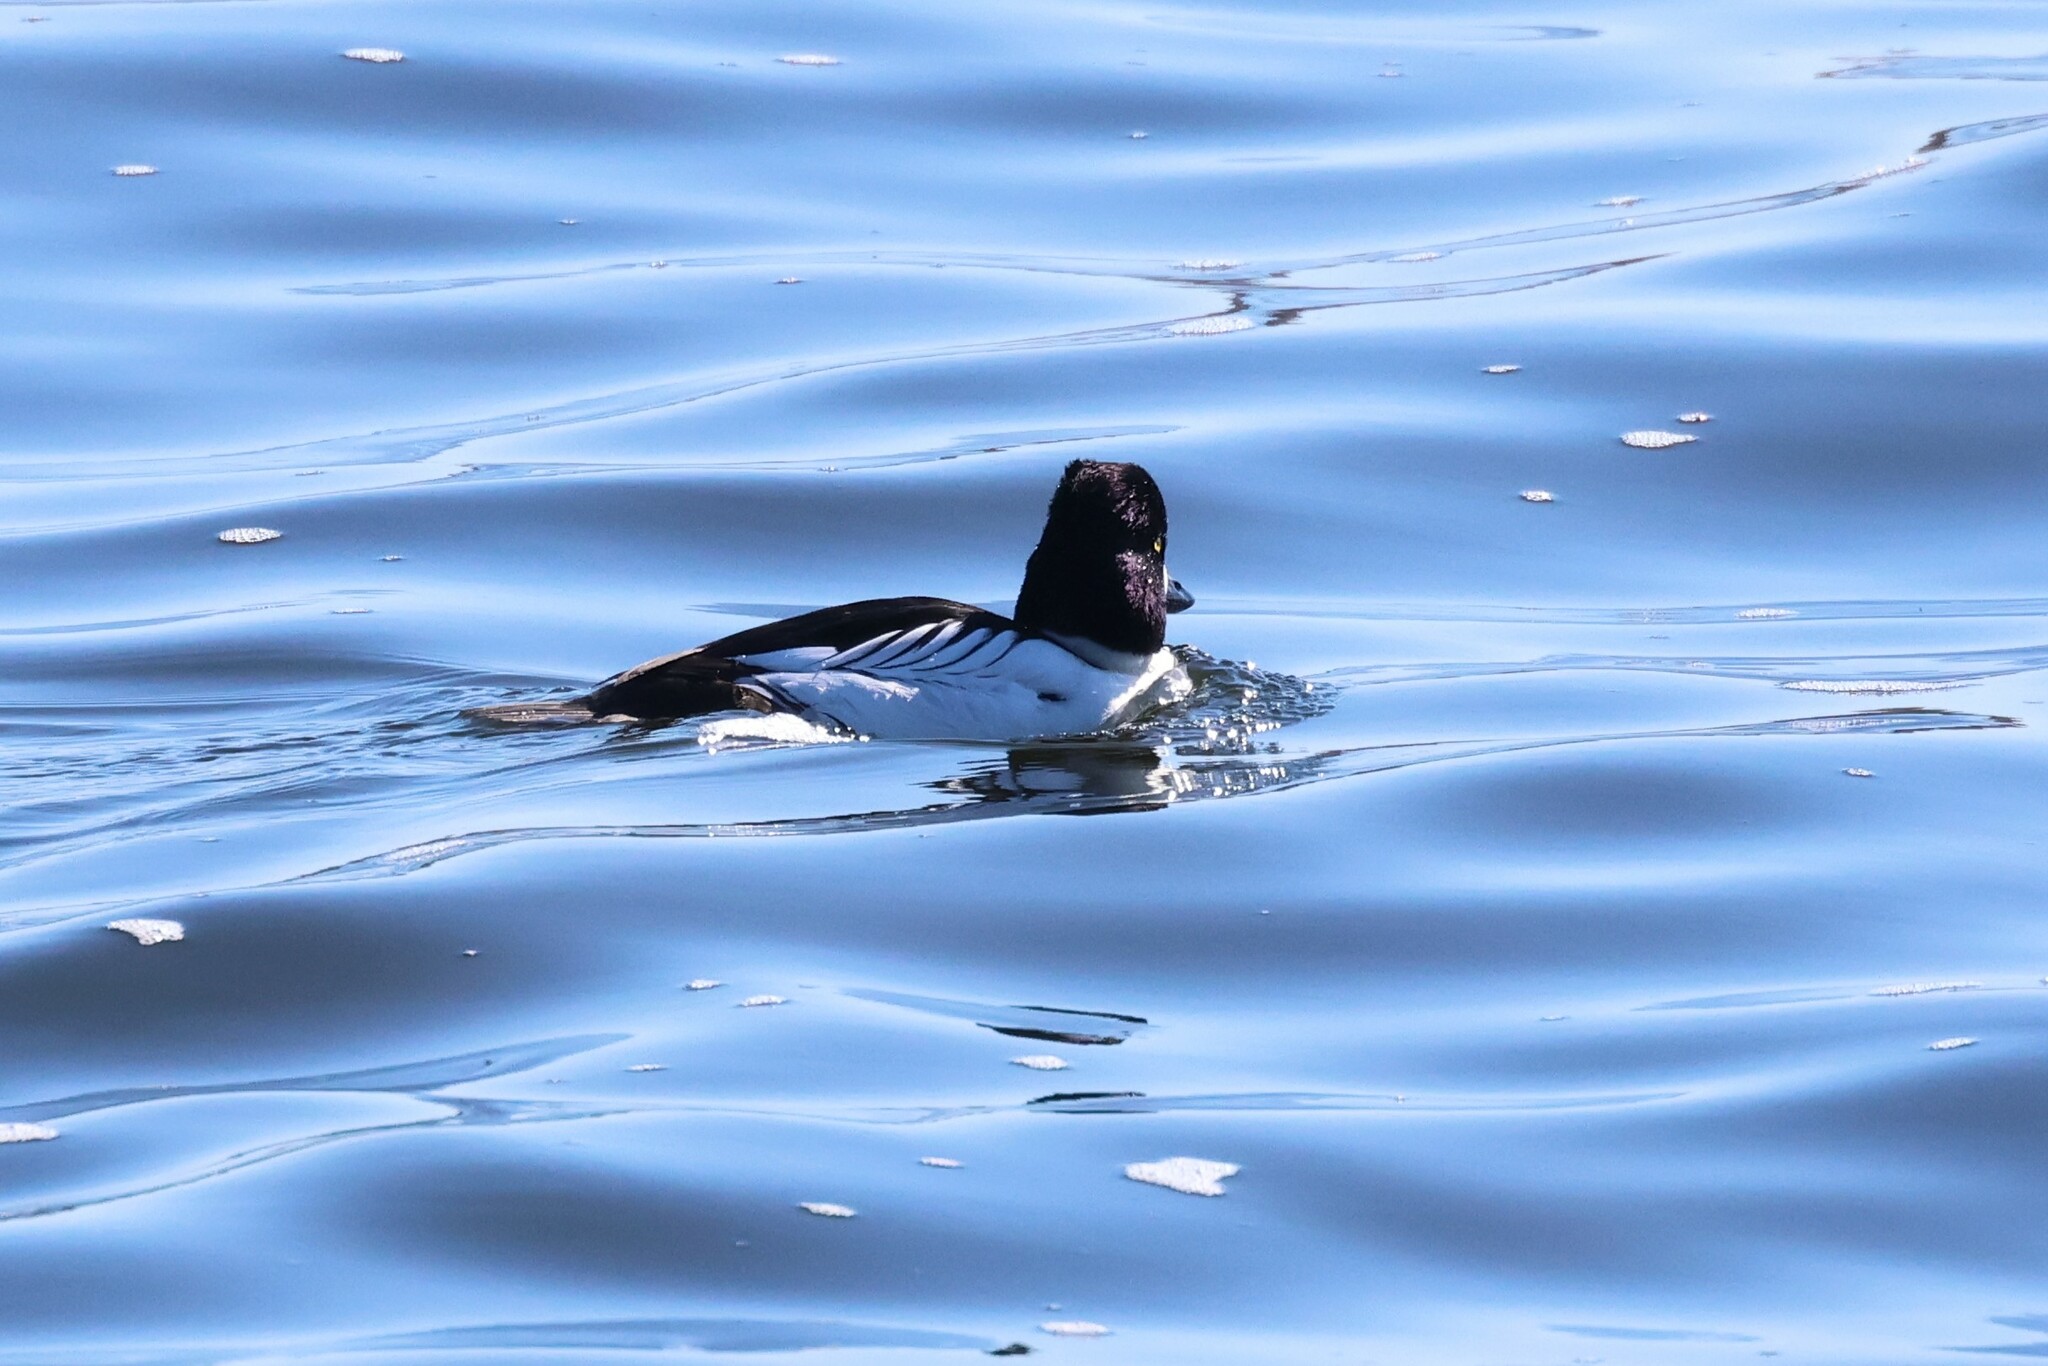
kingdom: Animalia
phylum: Chordata
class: Aves
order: Anseriformes
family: Anatidae
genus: Bucephala
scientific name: Bucephala clangula
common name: Common goldeneye
